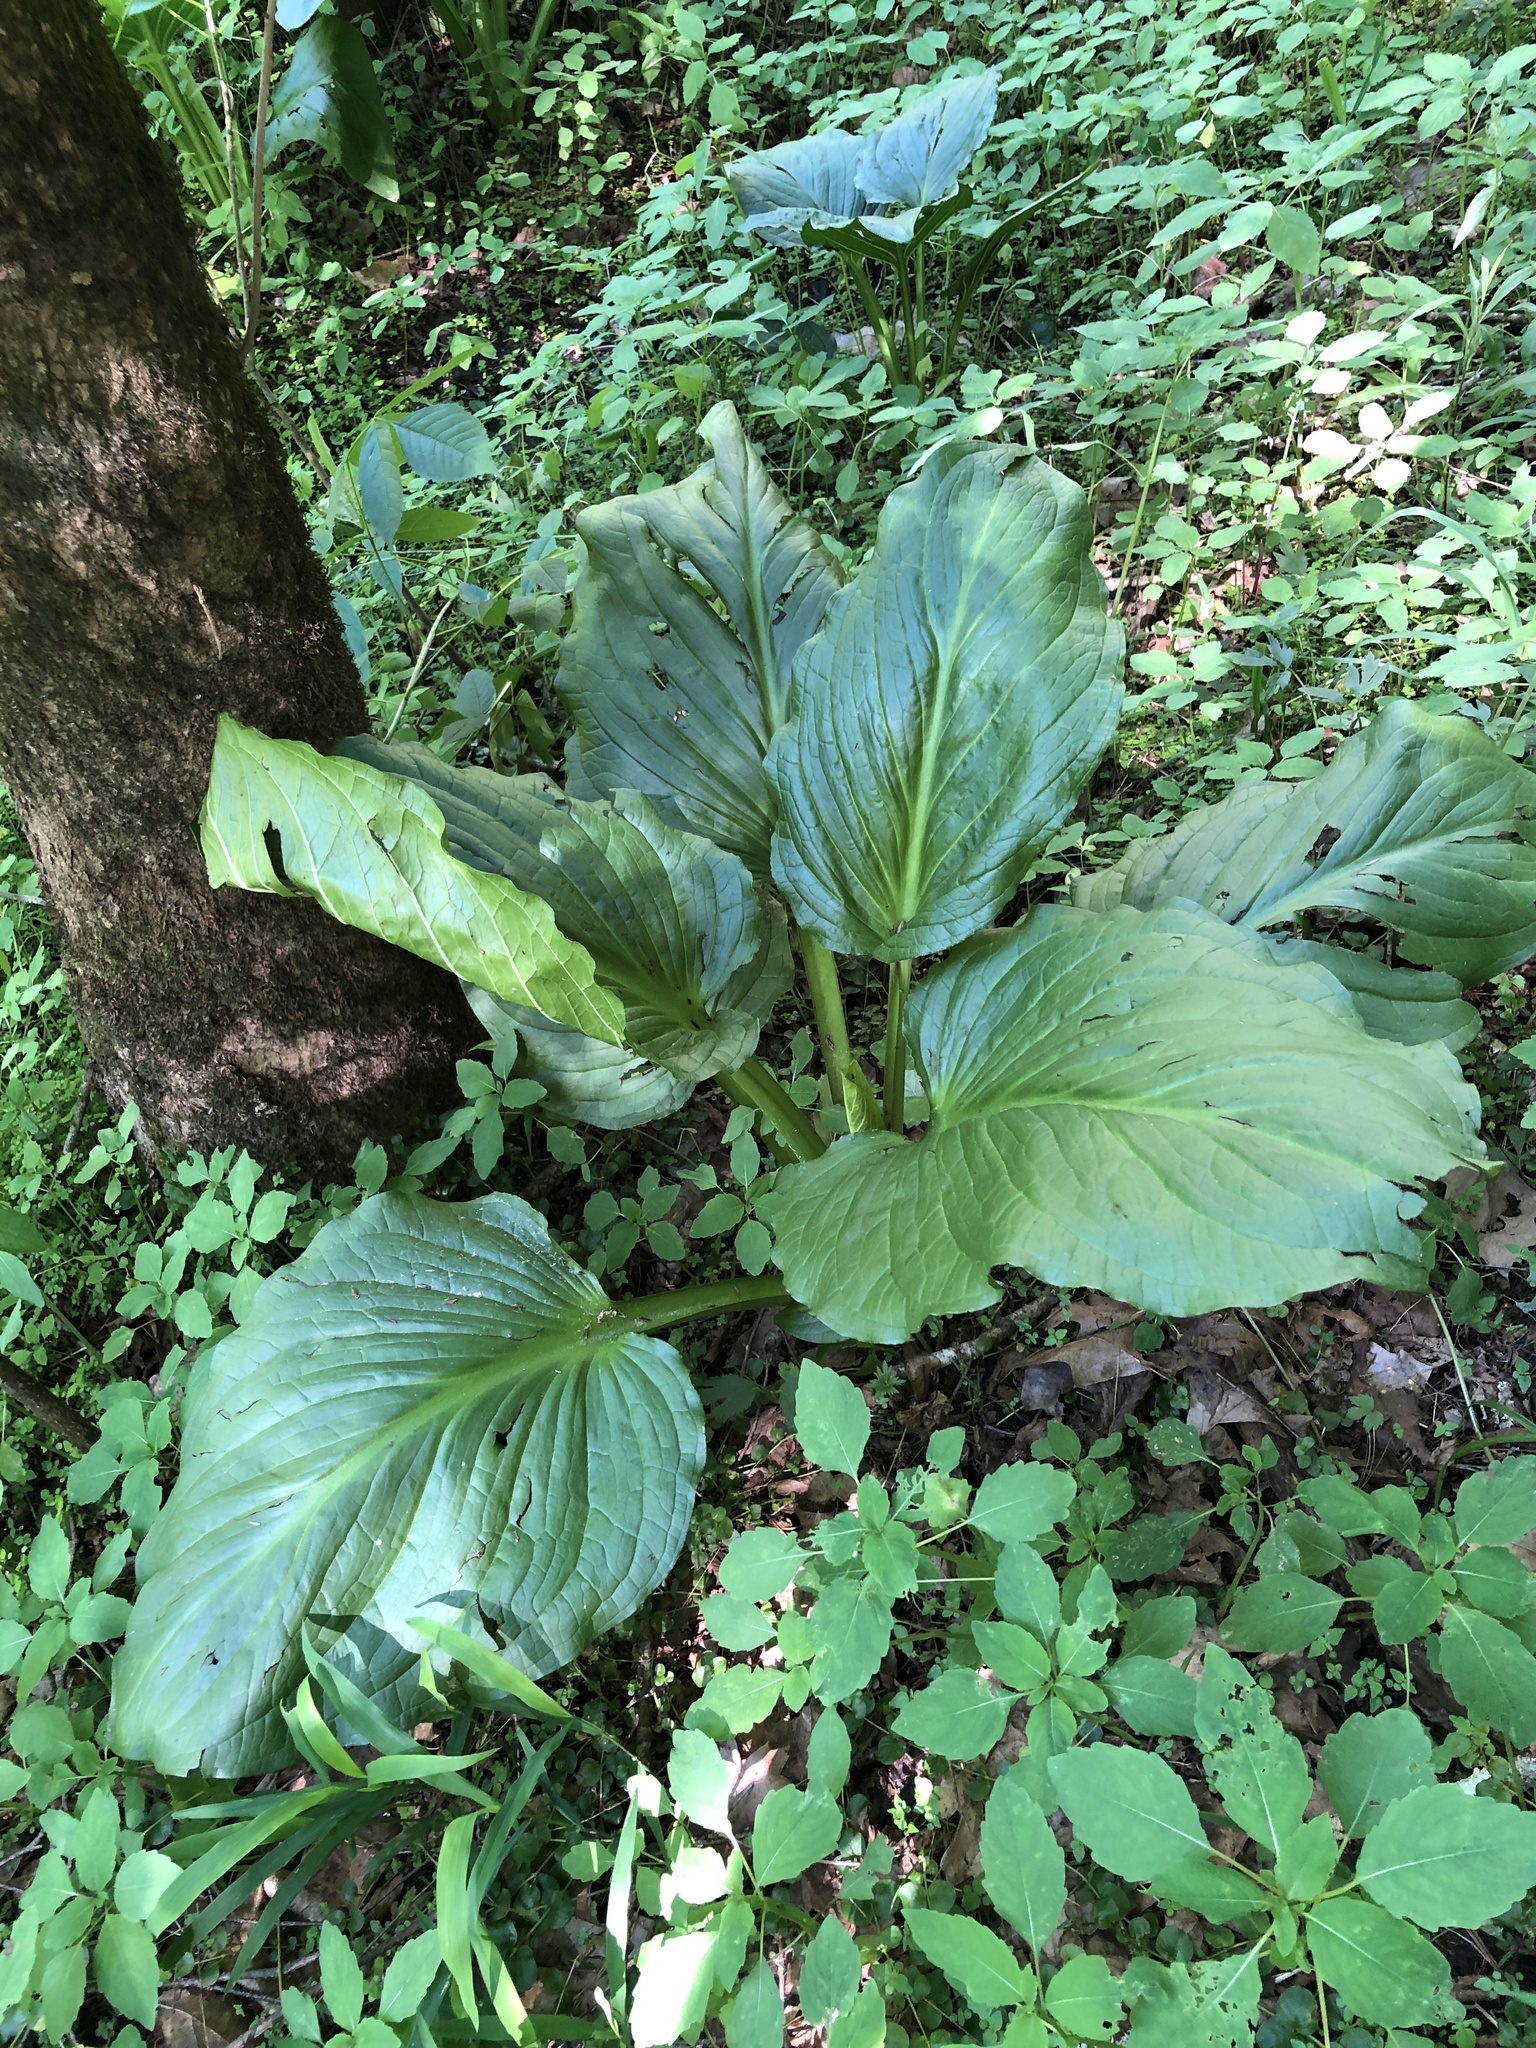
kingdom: Plantae
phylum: Tracheophyta
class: Liliopsida
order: Alismatales
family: Araceae
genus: Symplocarpus
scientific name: Symplocarpus foetidus
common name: Eastern skunk cabbage
